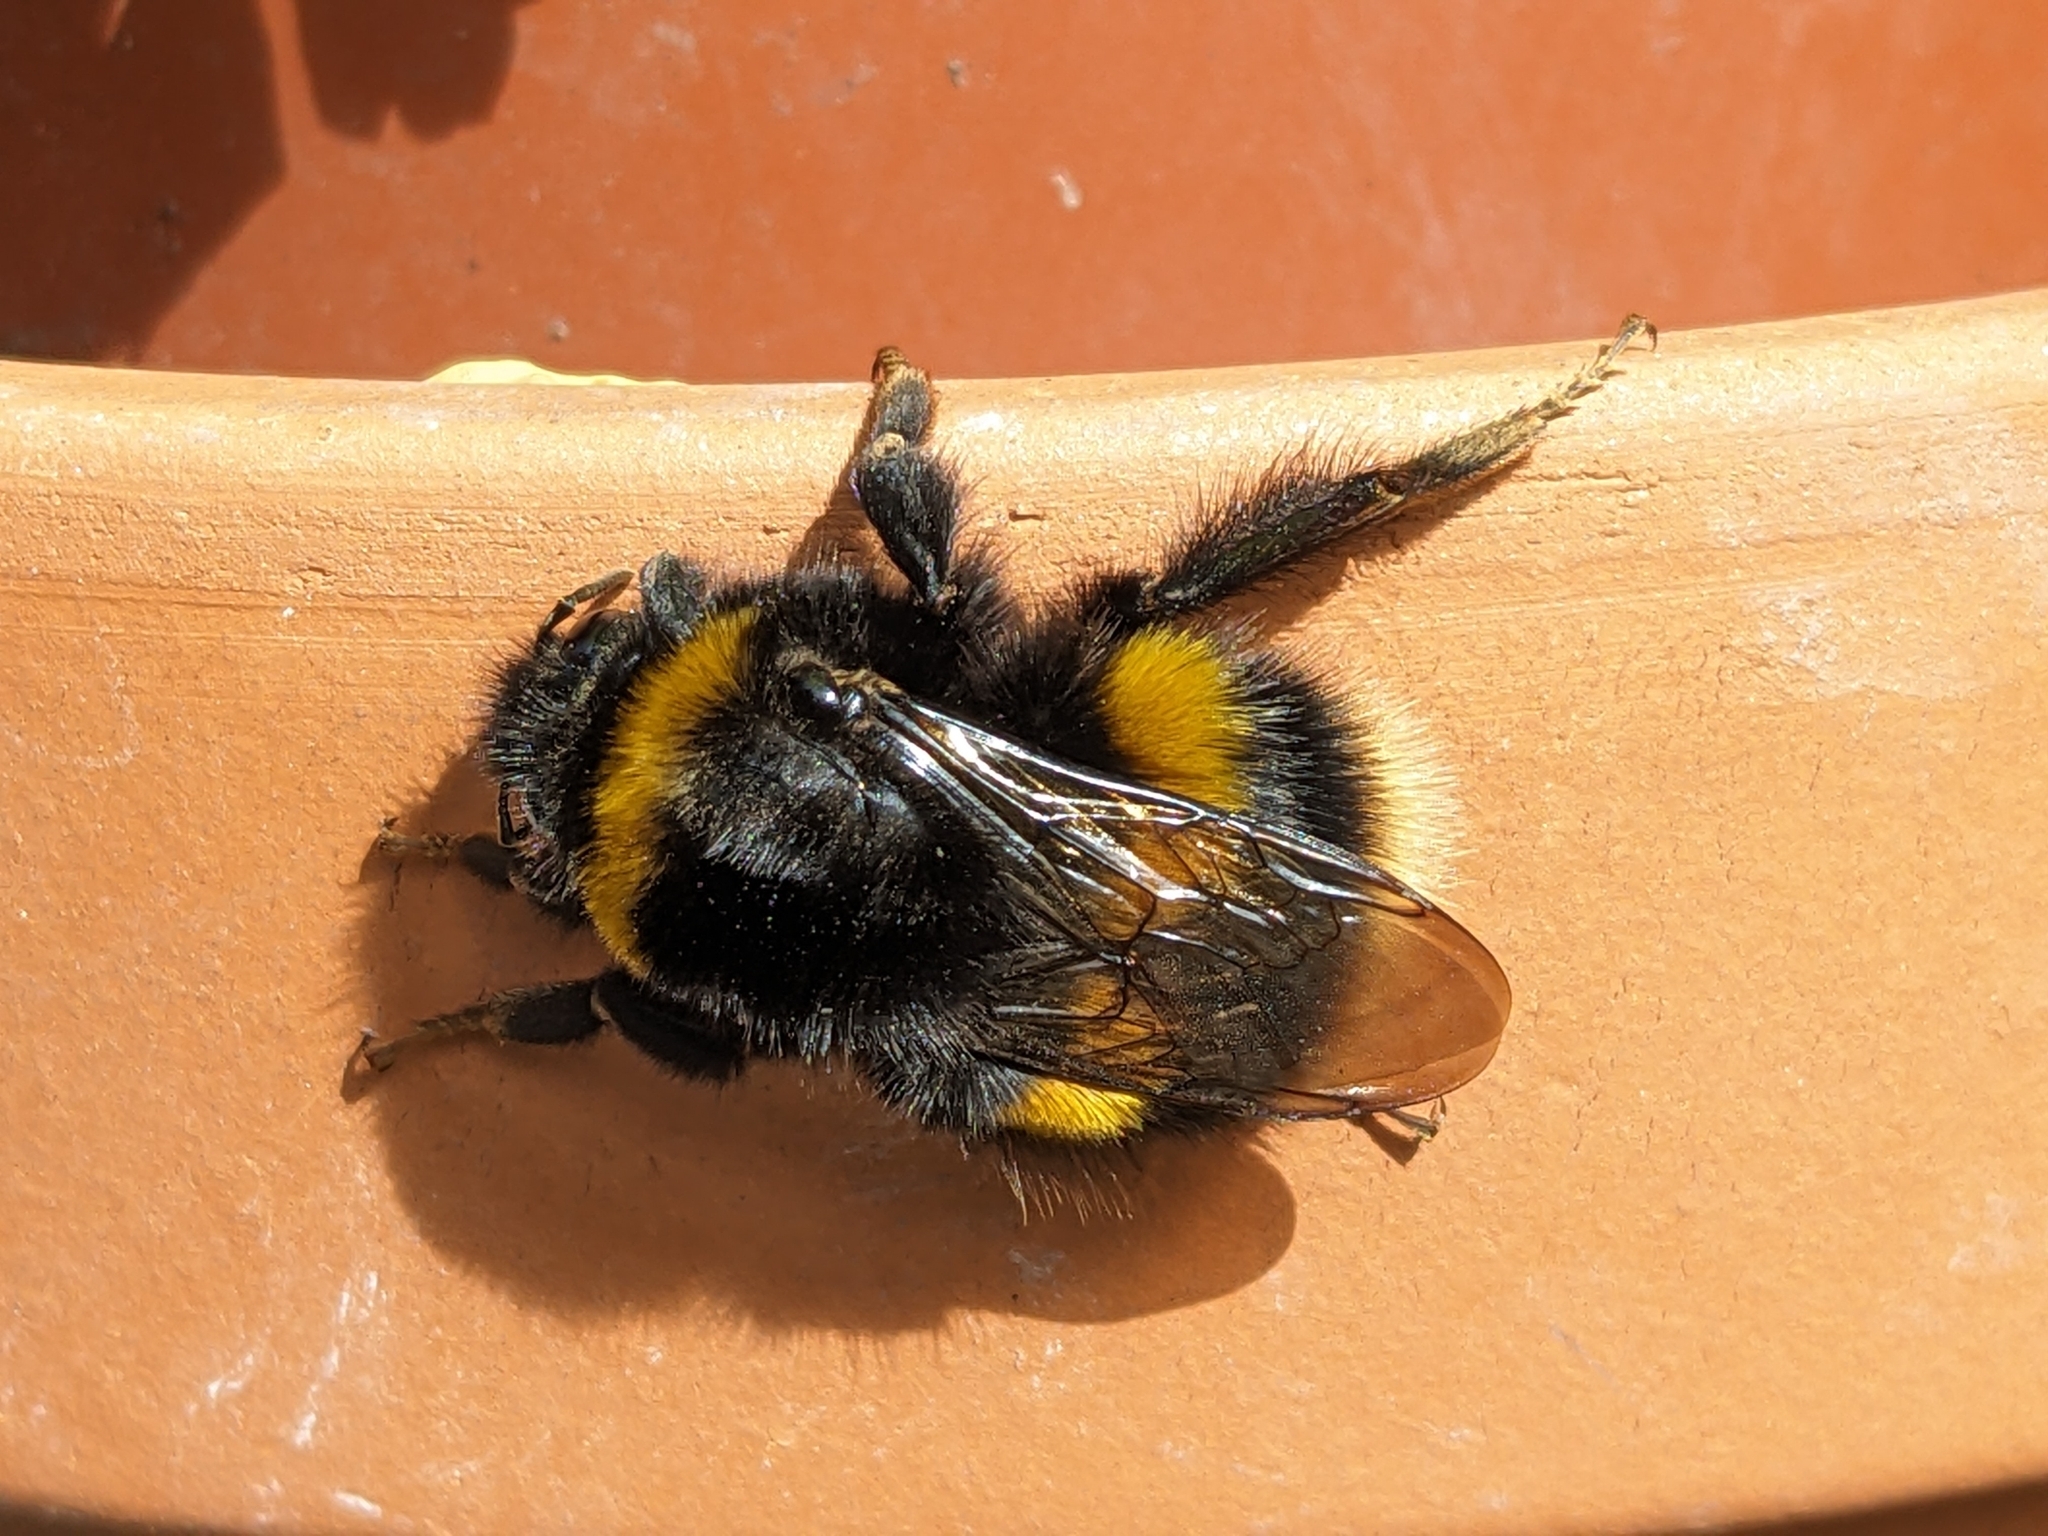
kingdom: Animalia
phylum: Arthropoda
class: Insecta
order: Hymenoptera
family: Apidae
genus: Bombus
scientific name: Bombus terrestris
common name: Buff-tailed bumblebee
